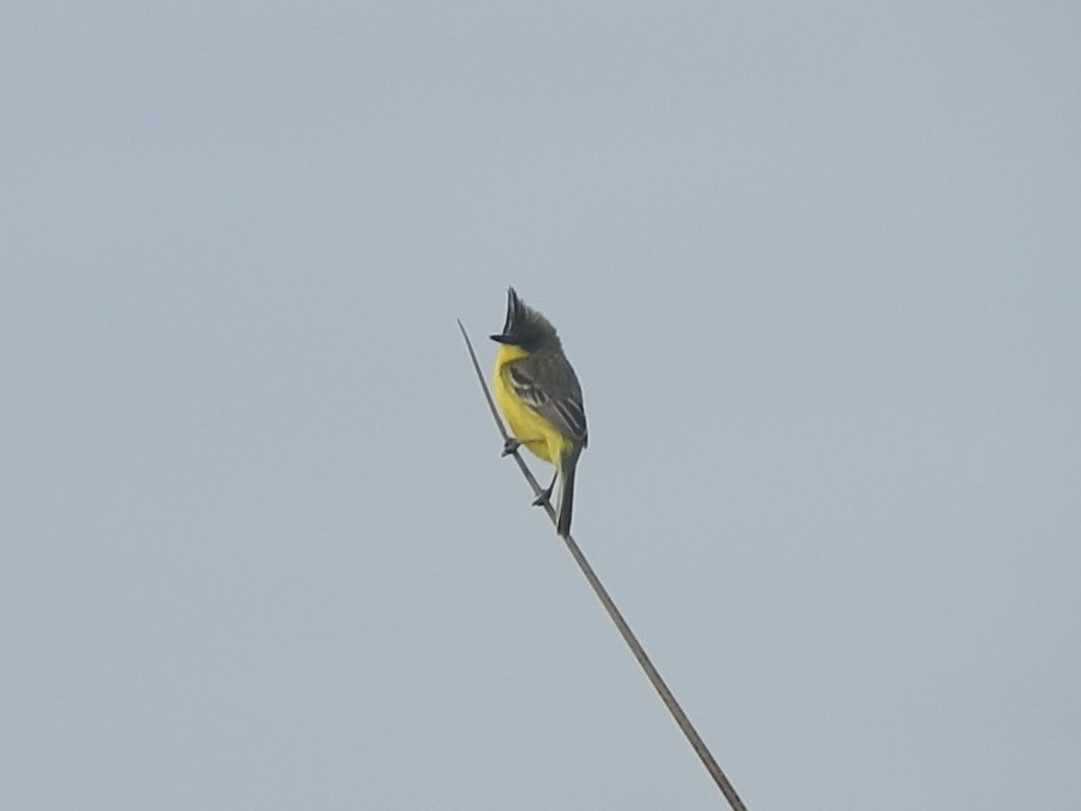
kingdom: Animalia
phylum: Chordata
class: Aves
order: Passeriformes
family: Tyrannidae
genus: Pseudocolopteryx
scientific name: Pseudocolopteryx sclateri
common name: Crested doradito
